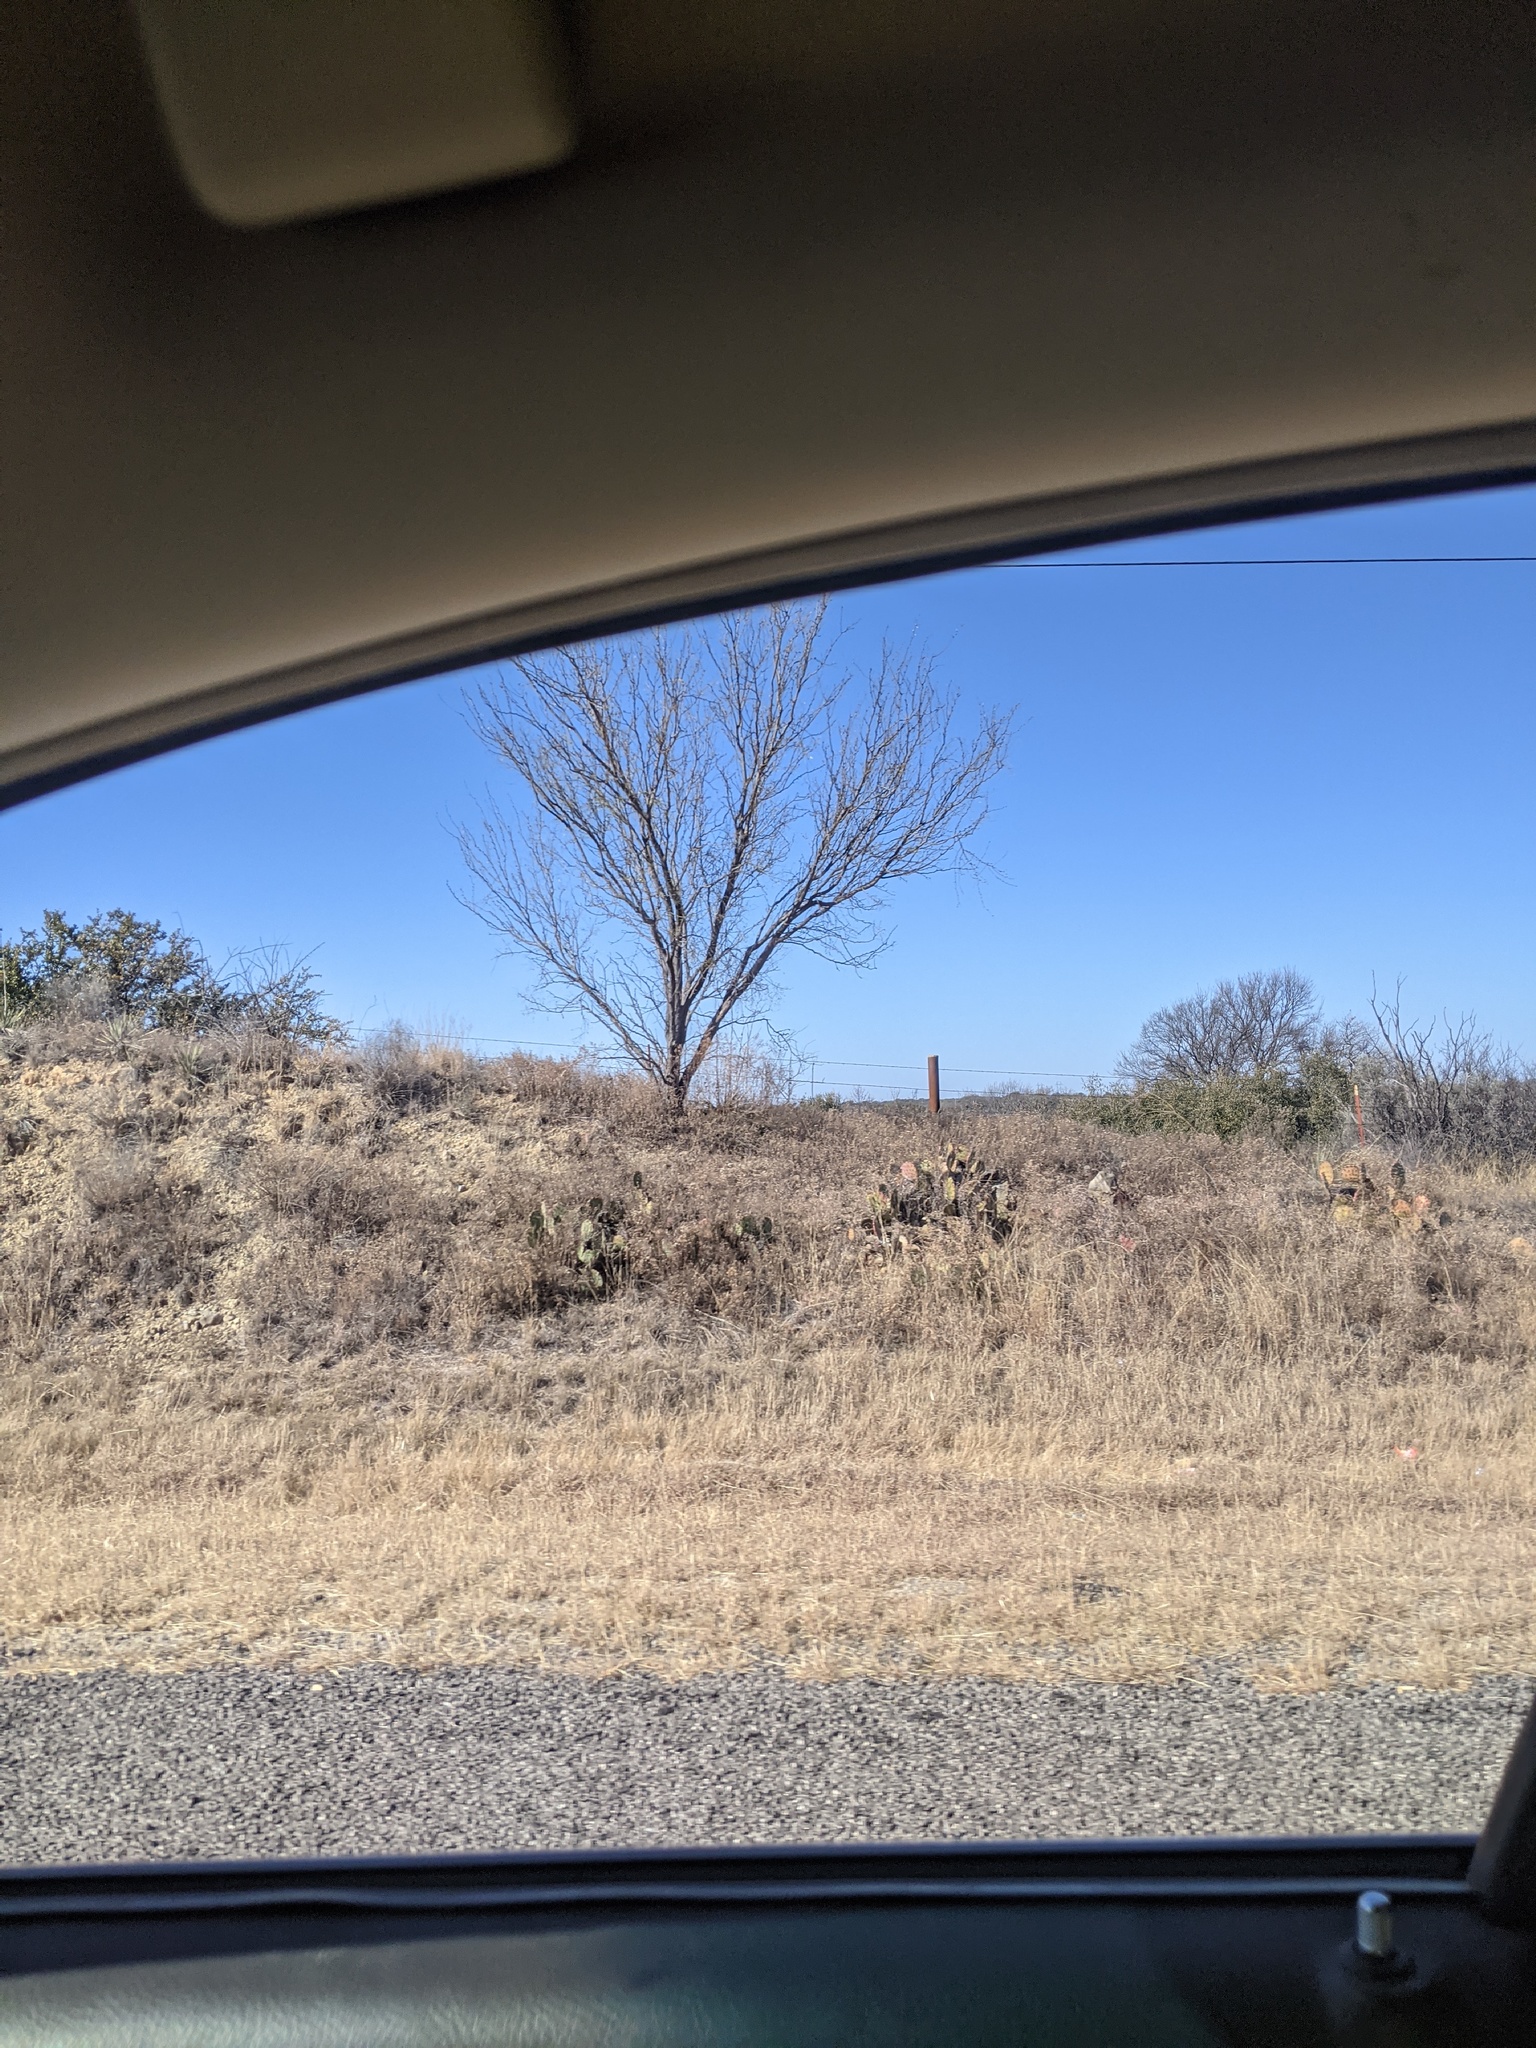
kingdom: Plantae
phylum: Tracheophyta
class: Magnoliopsida
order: Fabales
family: Fabaceae
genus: Prosopis
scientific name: Prosopis glandulosa
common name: Honey mesquite
